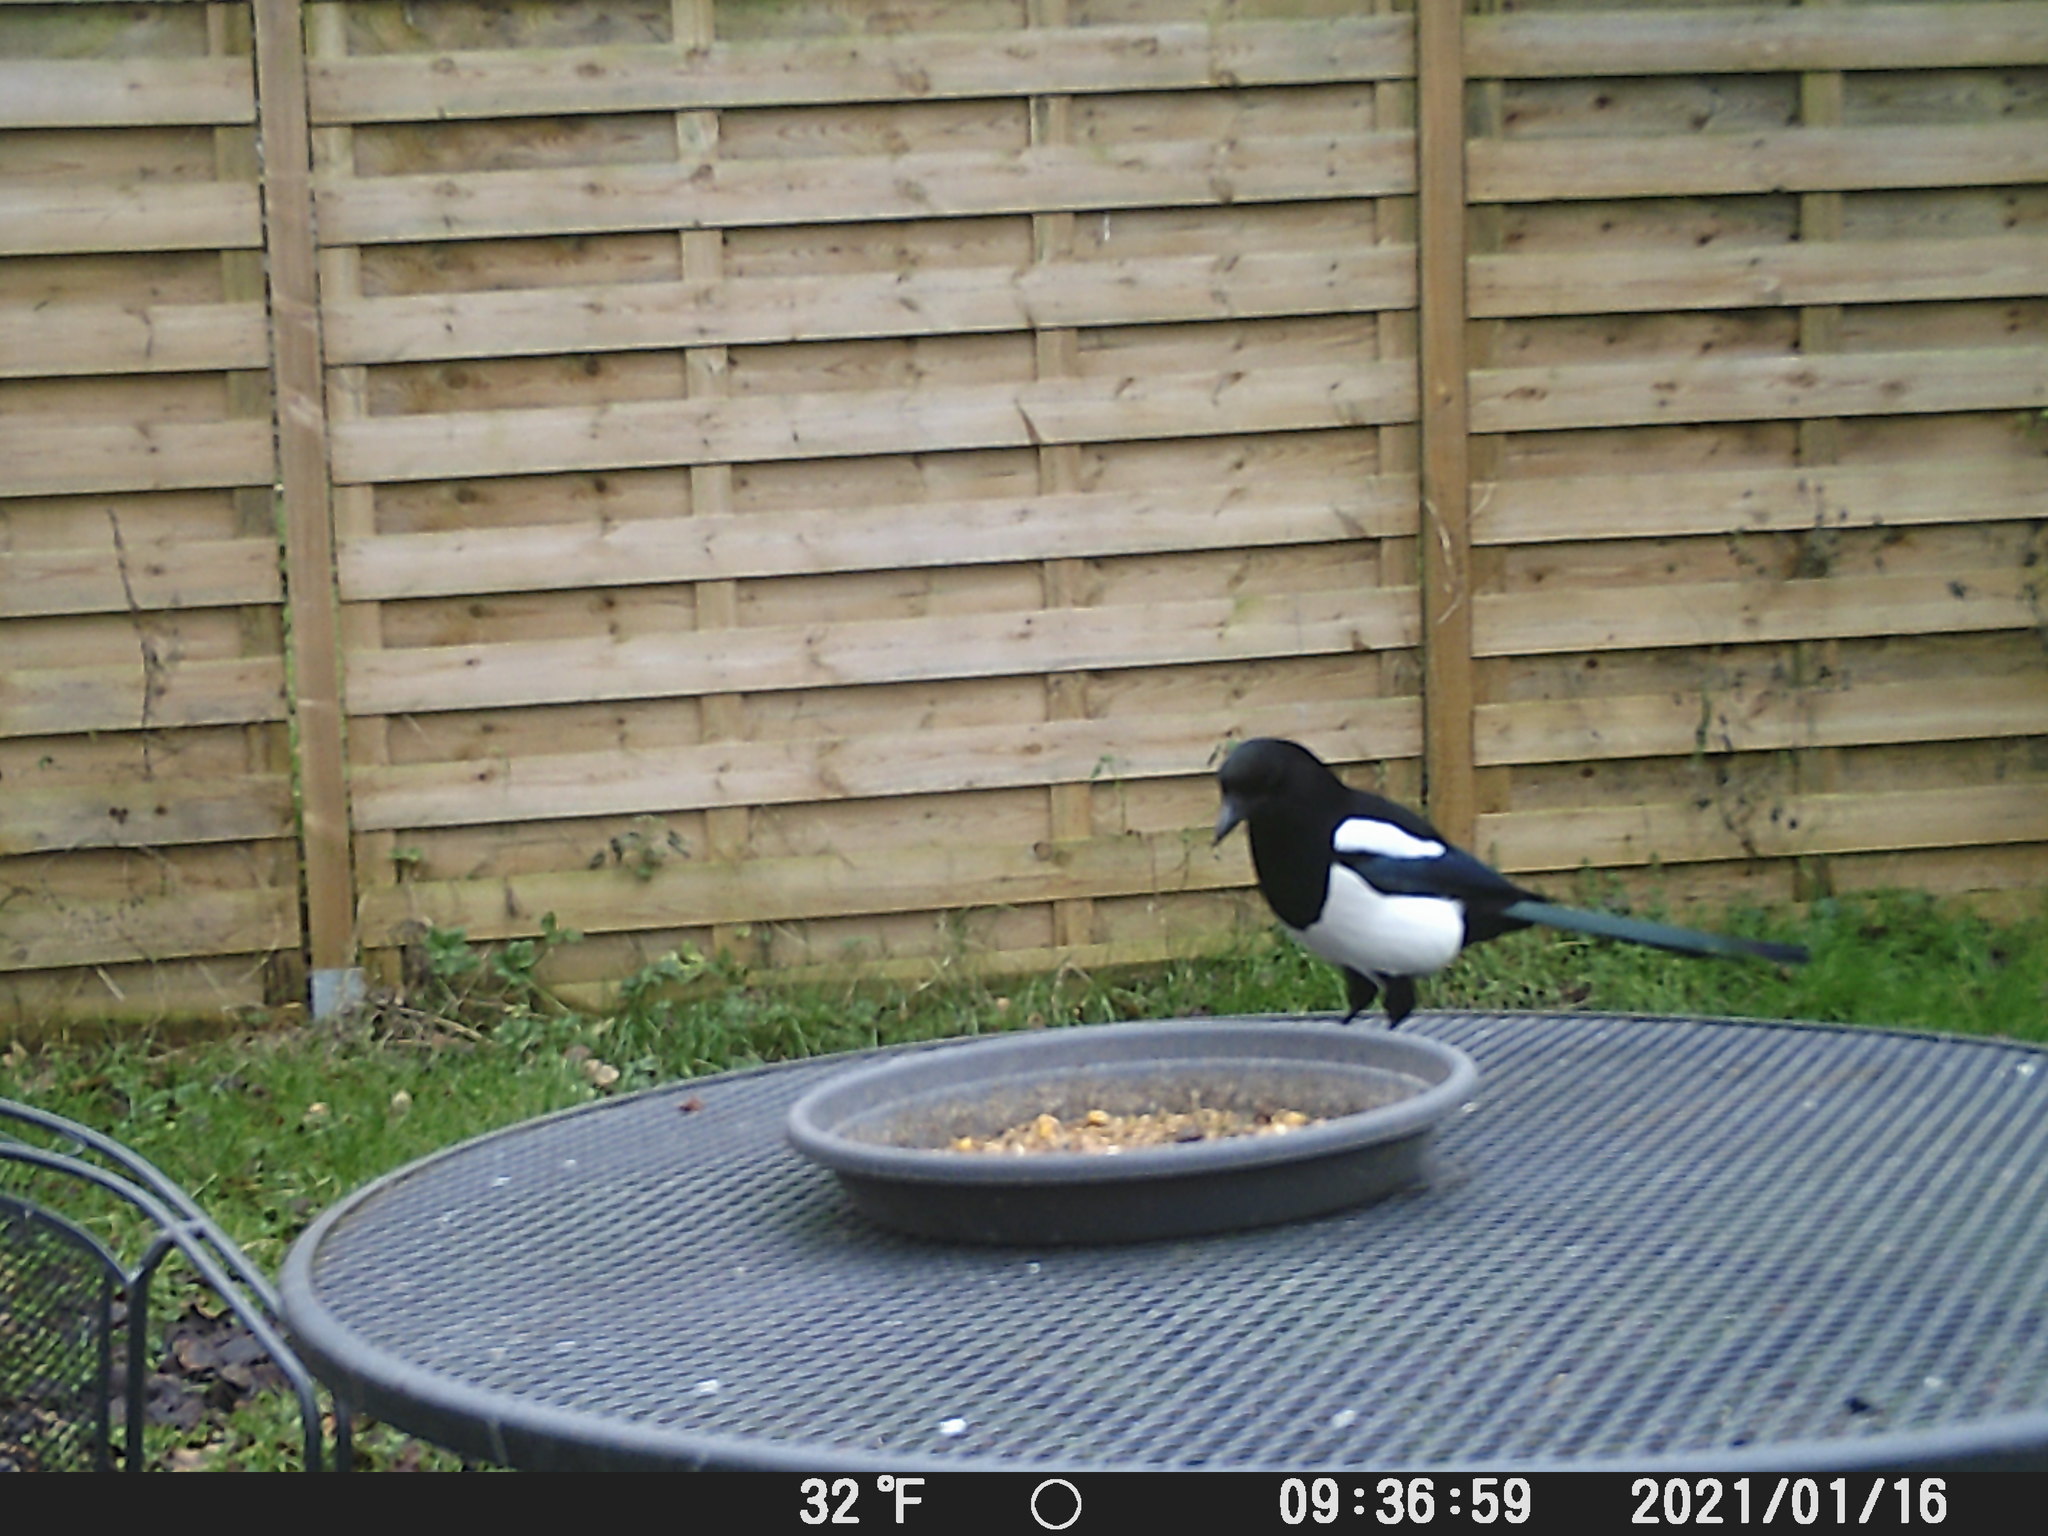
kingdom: Animalia
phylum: Chordata
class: Aves
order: Passeriformes
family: Corvidae
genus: Pica
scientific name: Pica pica
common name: Eurasian magpie
